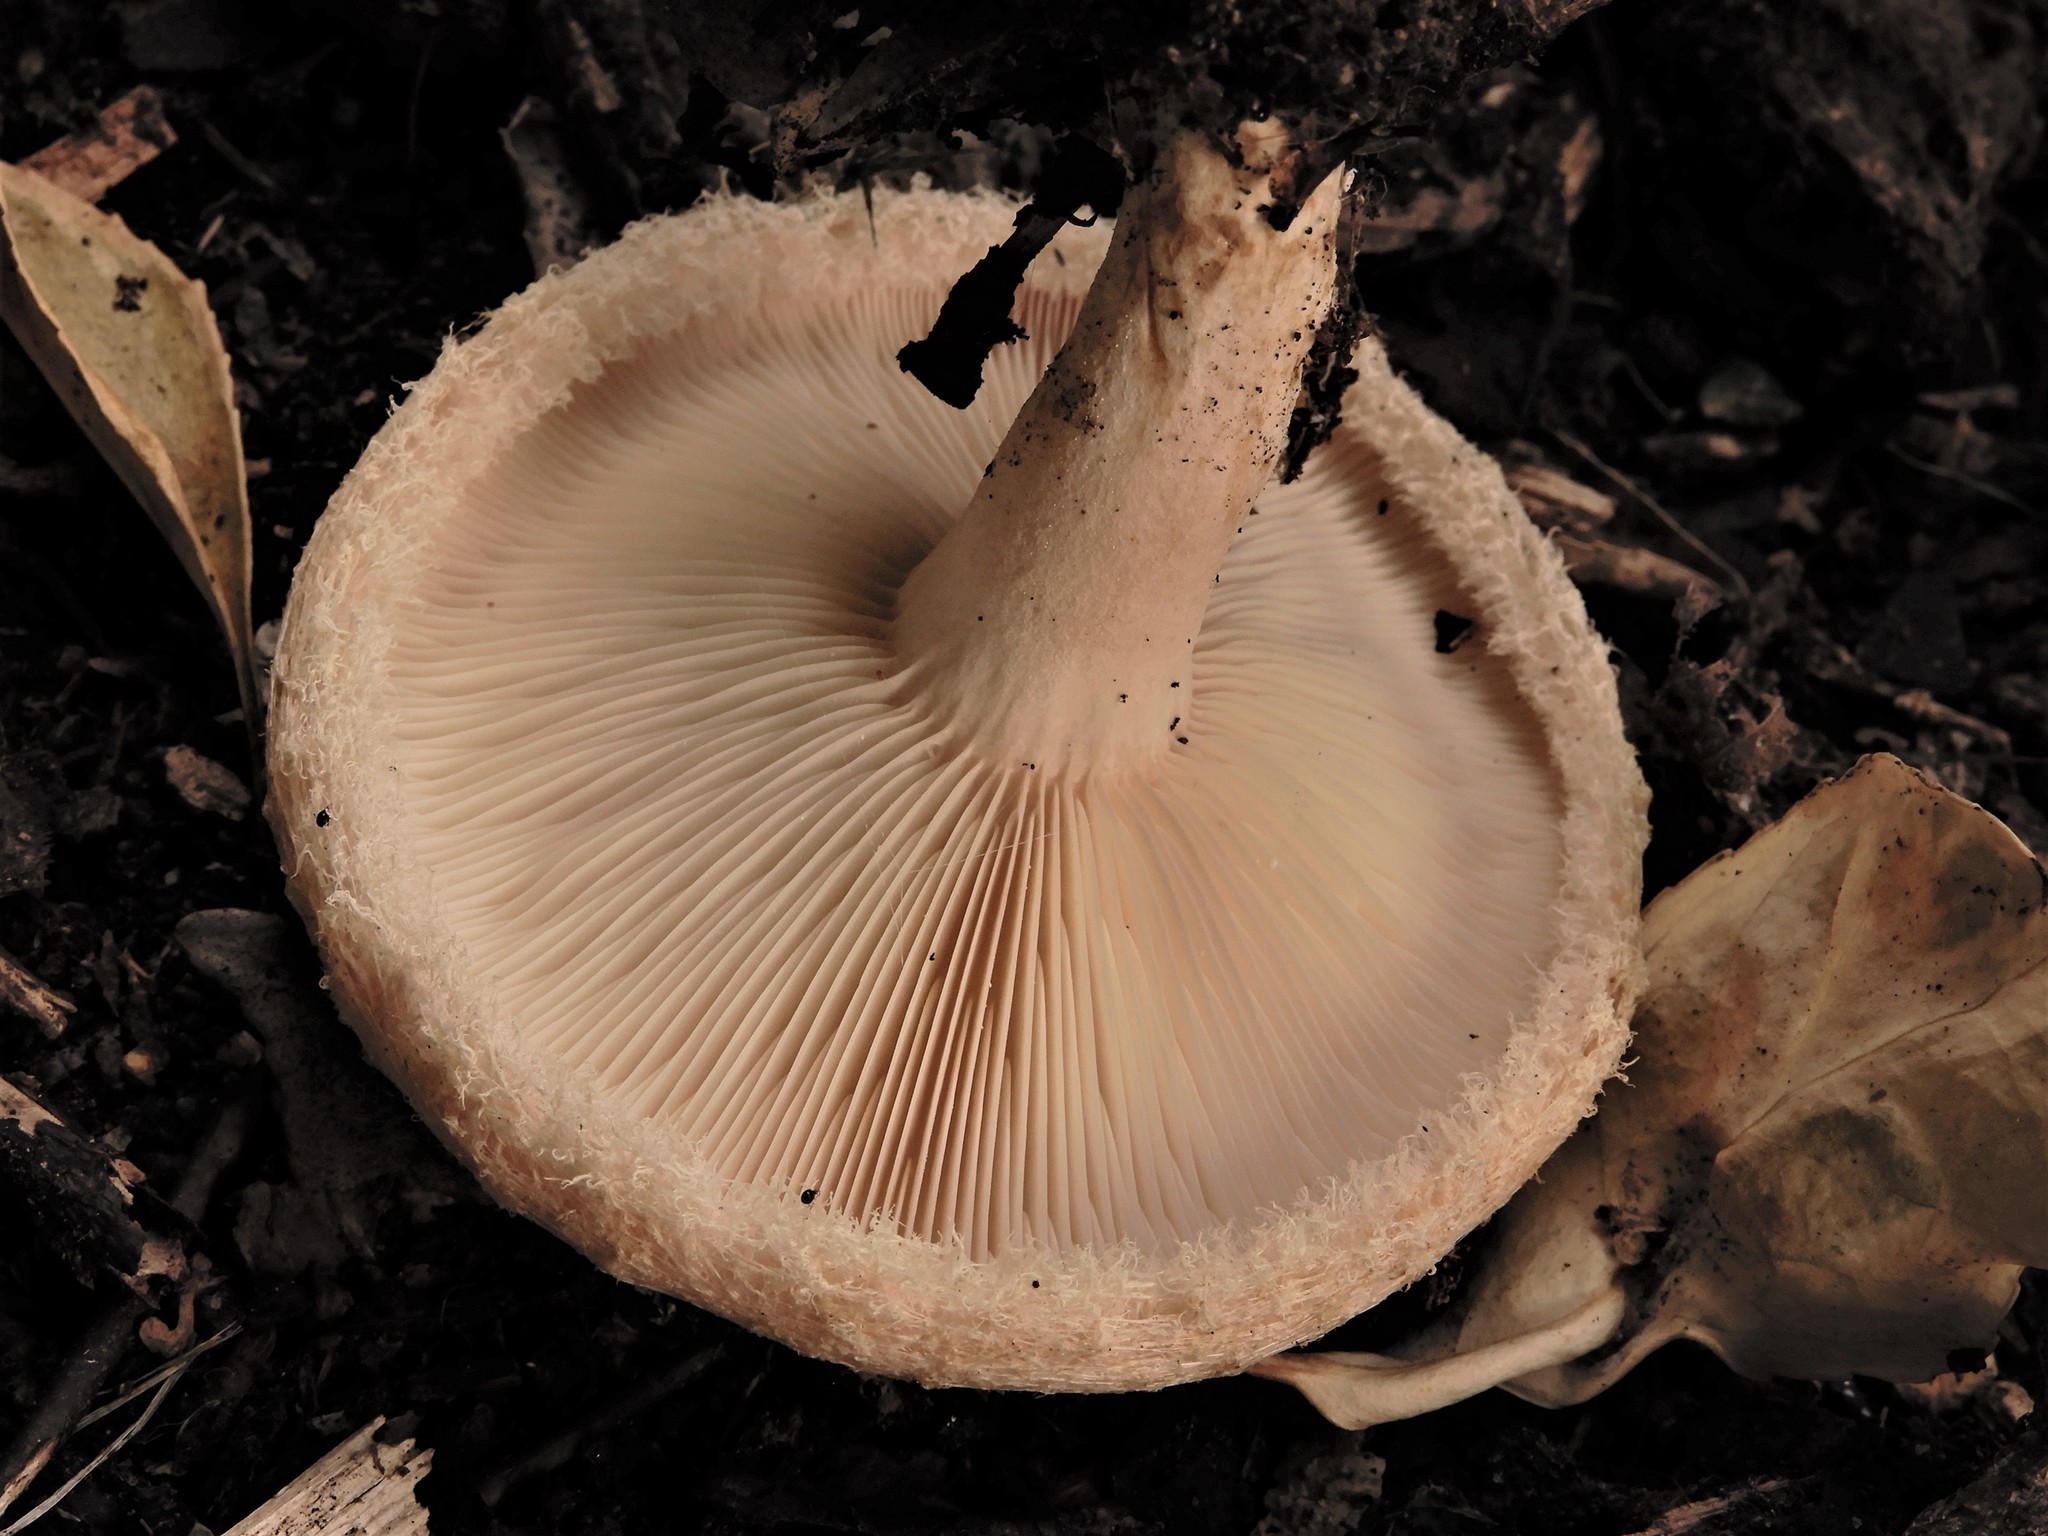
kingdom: Fungi
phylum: Basidiomycota
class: Agaricomycetes
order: Russulales
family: Russulaceae
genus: Lactarius
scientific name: Lactarius pubescens
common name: Bearded milkcap
